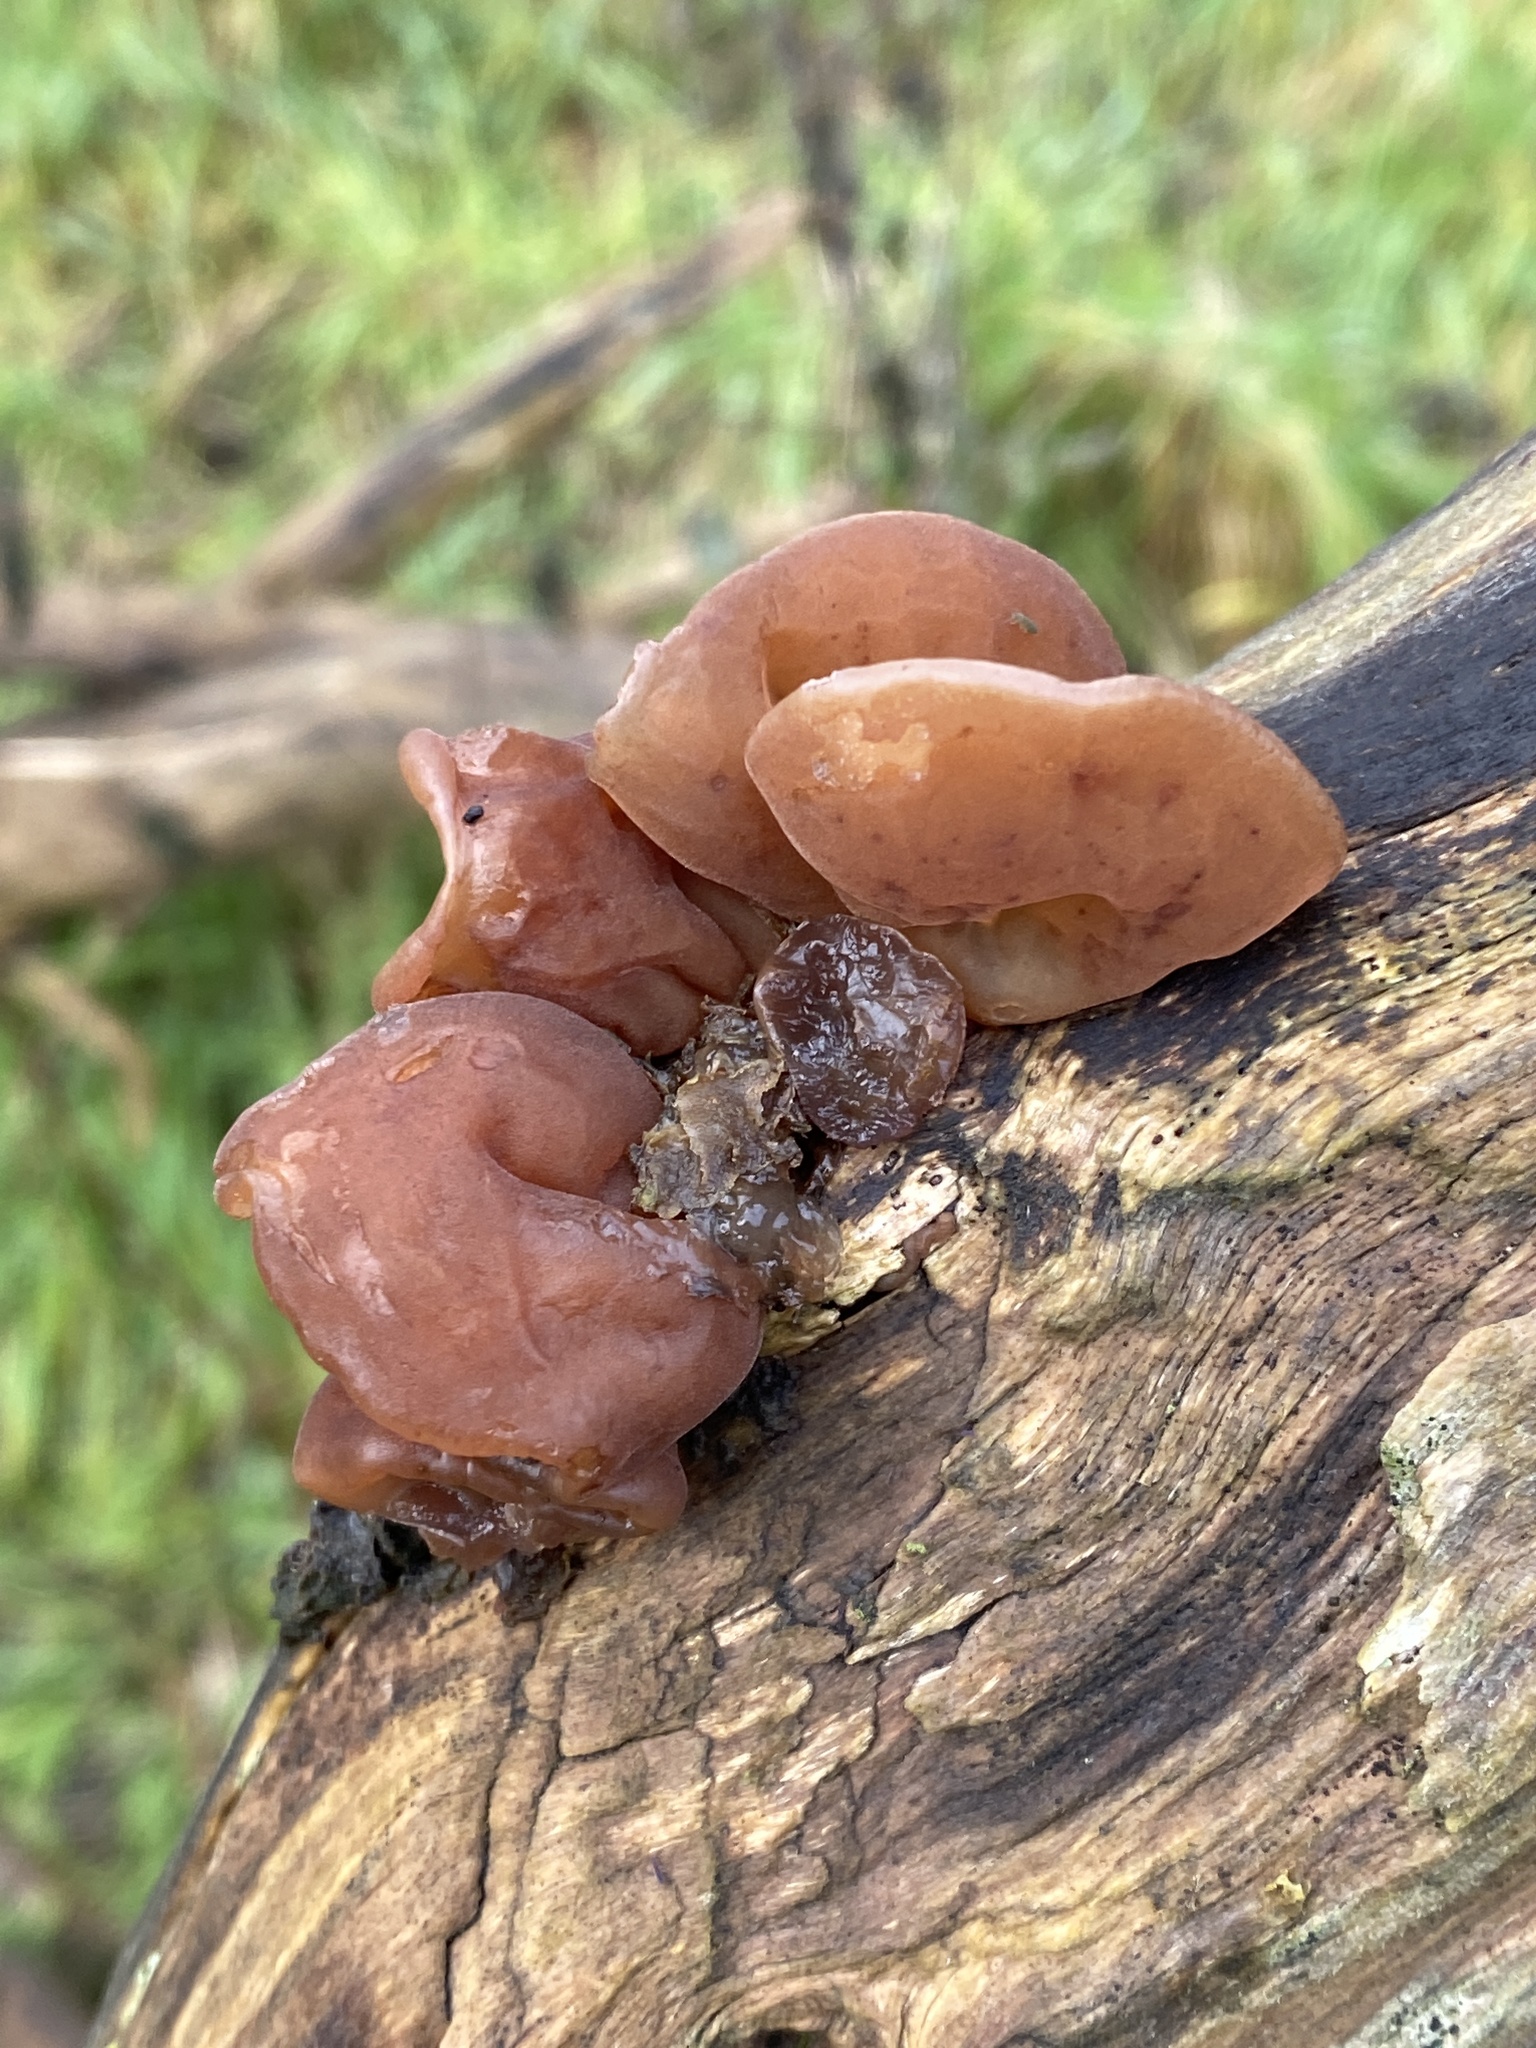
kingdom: Fungi
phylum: Basidiomycota
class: Agaricomycetes
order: Auriculariales
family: Auriculariaceae
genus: Auricularia
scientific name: Auricularia auricula-judae
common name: Jelly ear
